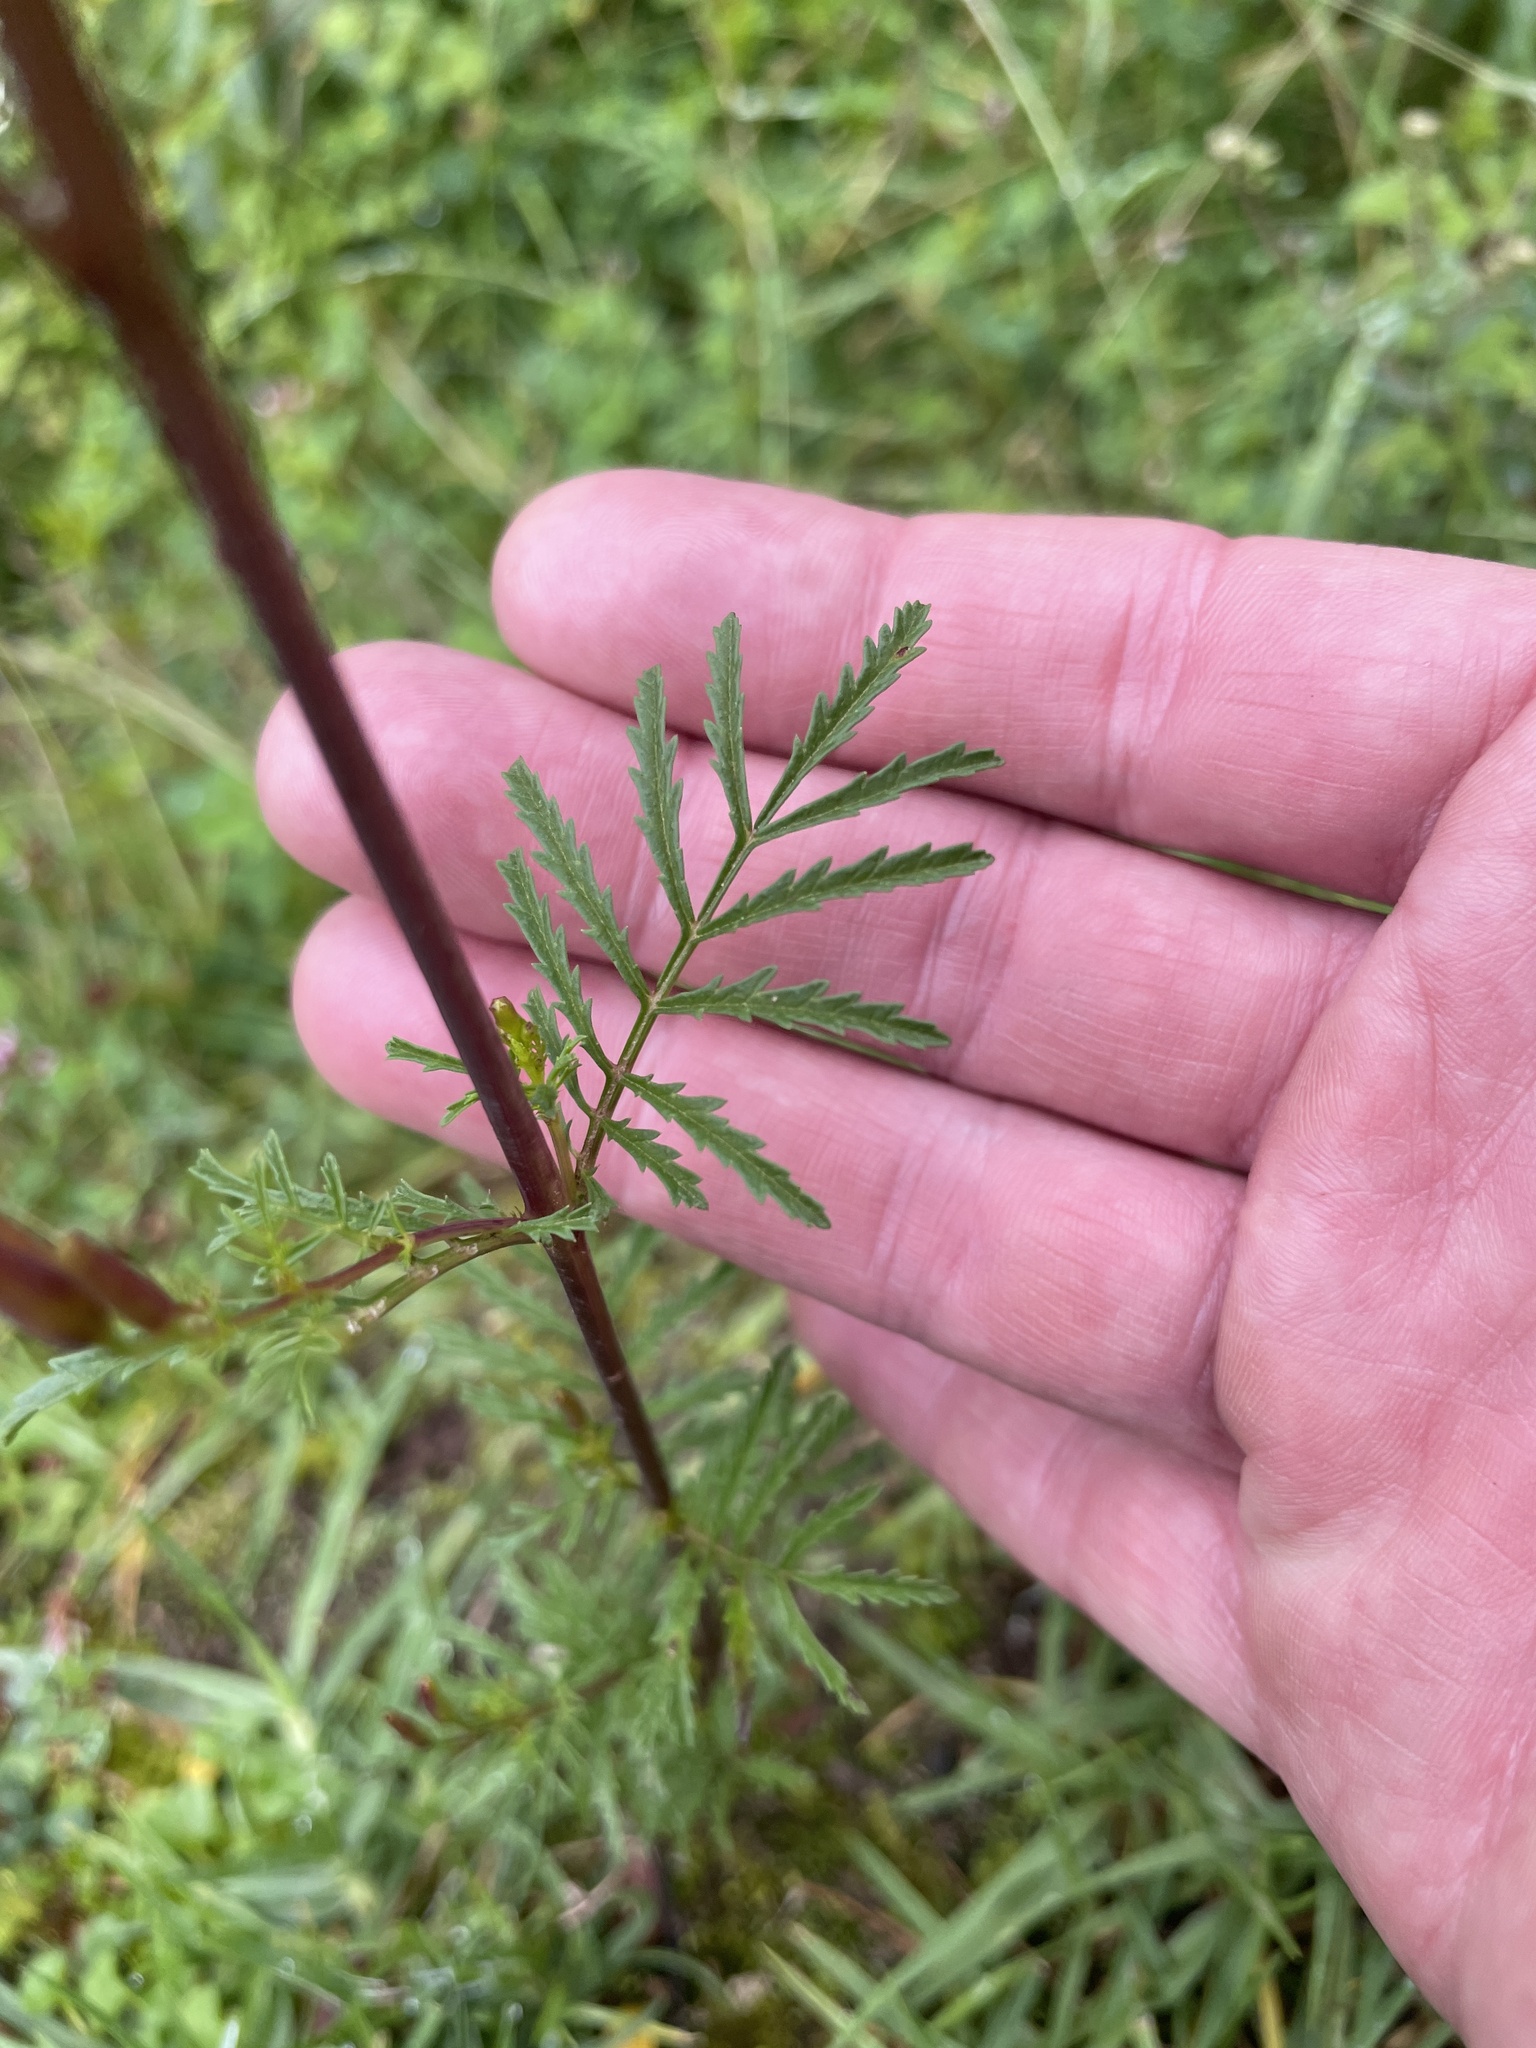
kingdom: Plantae
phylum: Tracheophyta
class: Magnoliopsida
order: Asterales
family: Asteraceae
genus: Tagetes
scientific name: Tagetes multiflora
